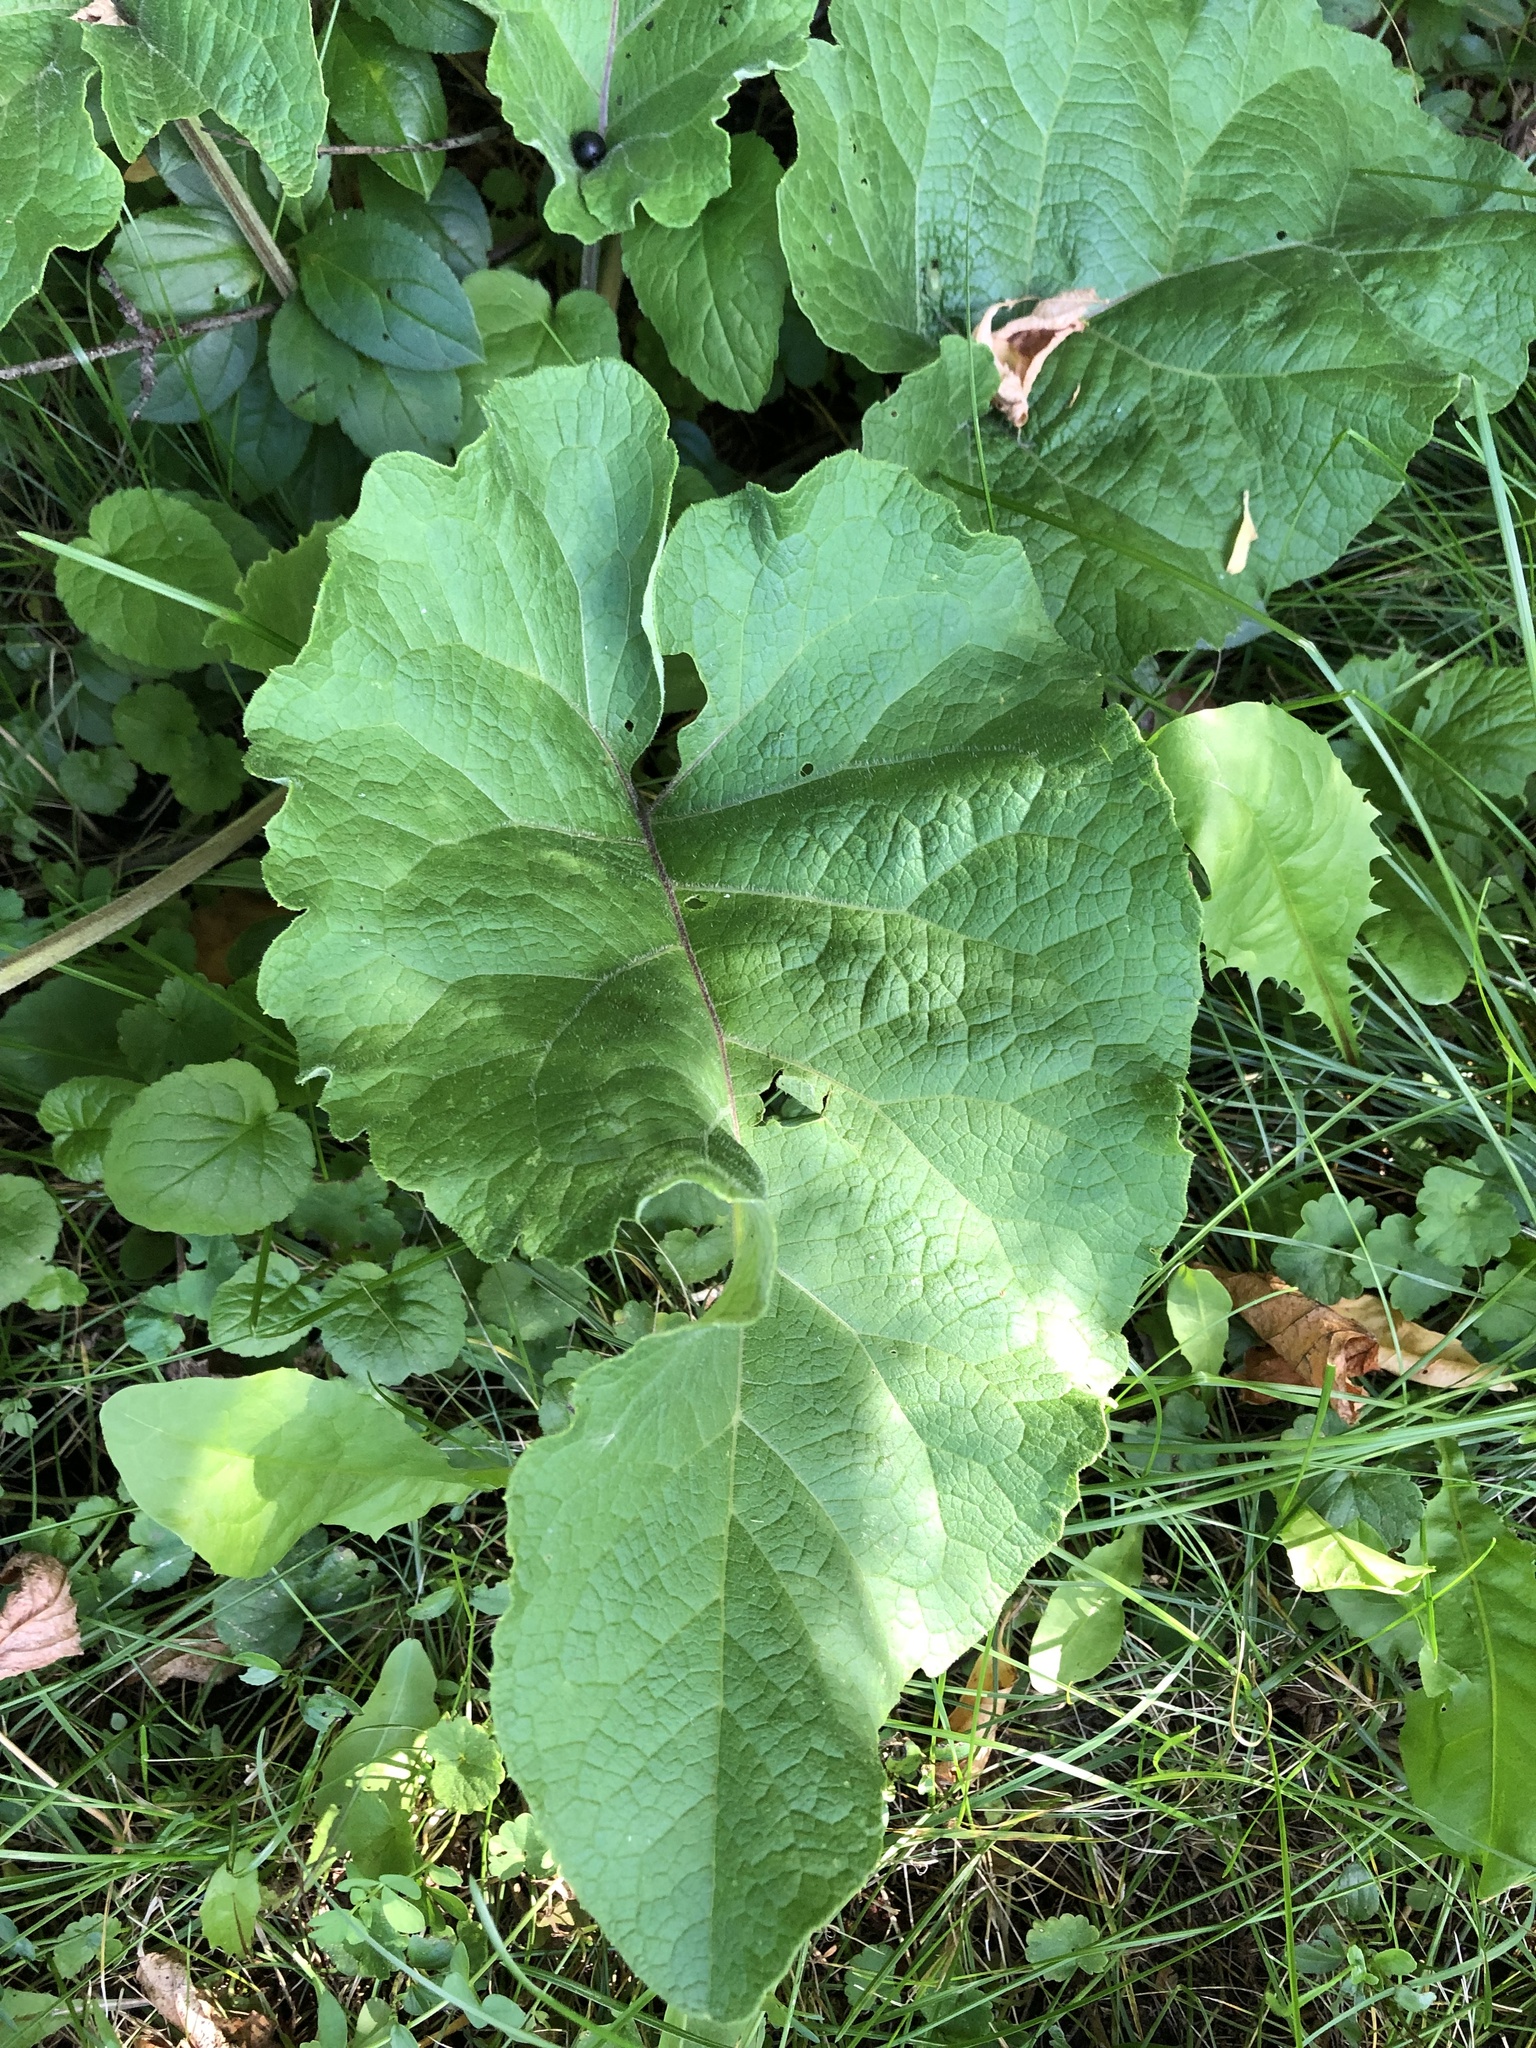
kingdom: Plantae
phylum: Tracheophyta
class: Magnoliopsida
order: Asterales
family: Asteraceae
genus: Arctium
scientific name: Arctium
